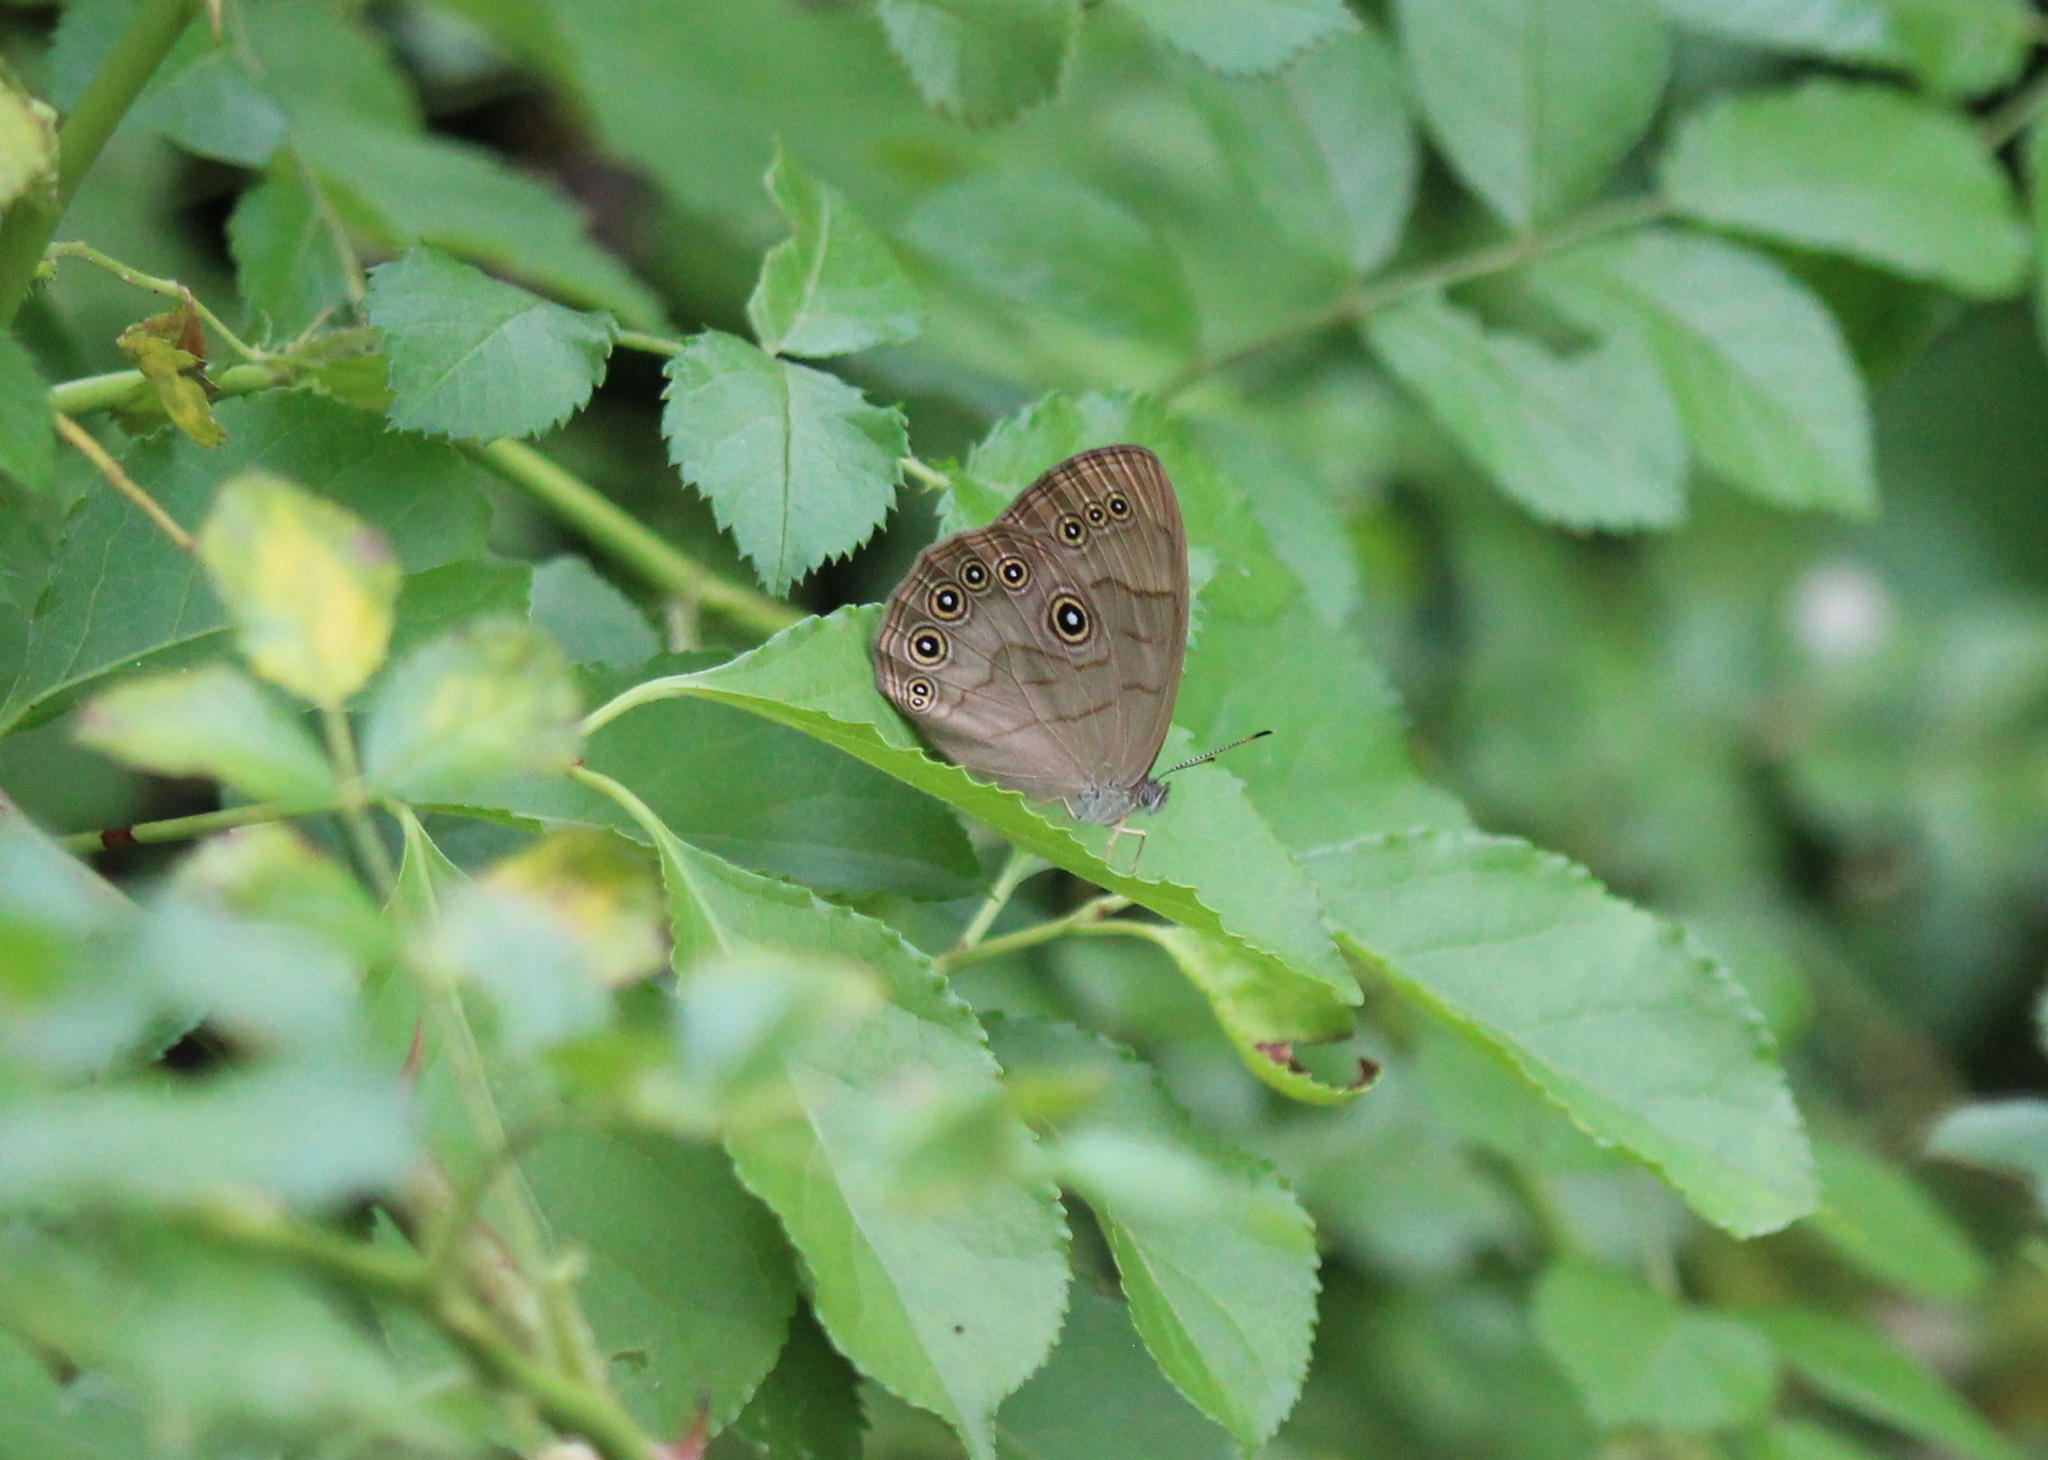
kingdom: Animalia
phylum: Arthropoda
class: Insecta
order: Lepidoptera
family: Nymphalidae
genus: Lethe
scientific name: Lethe eurydice
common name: Eyed brown
